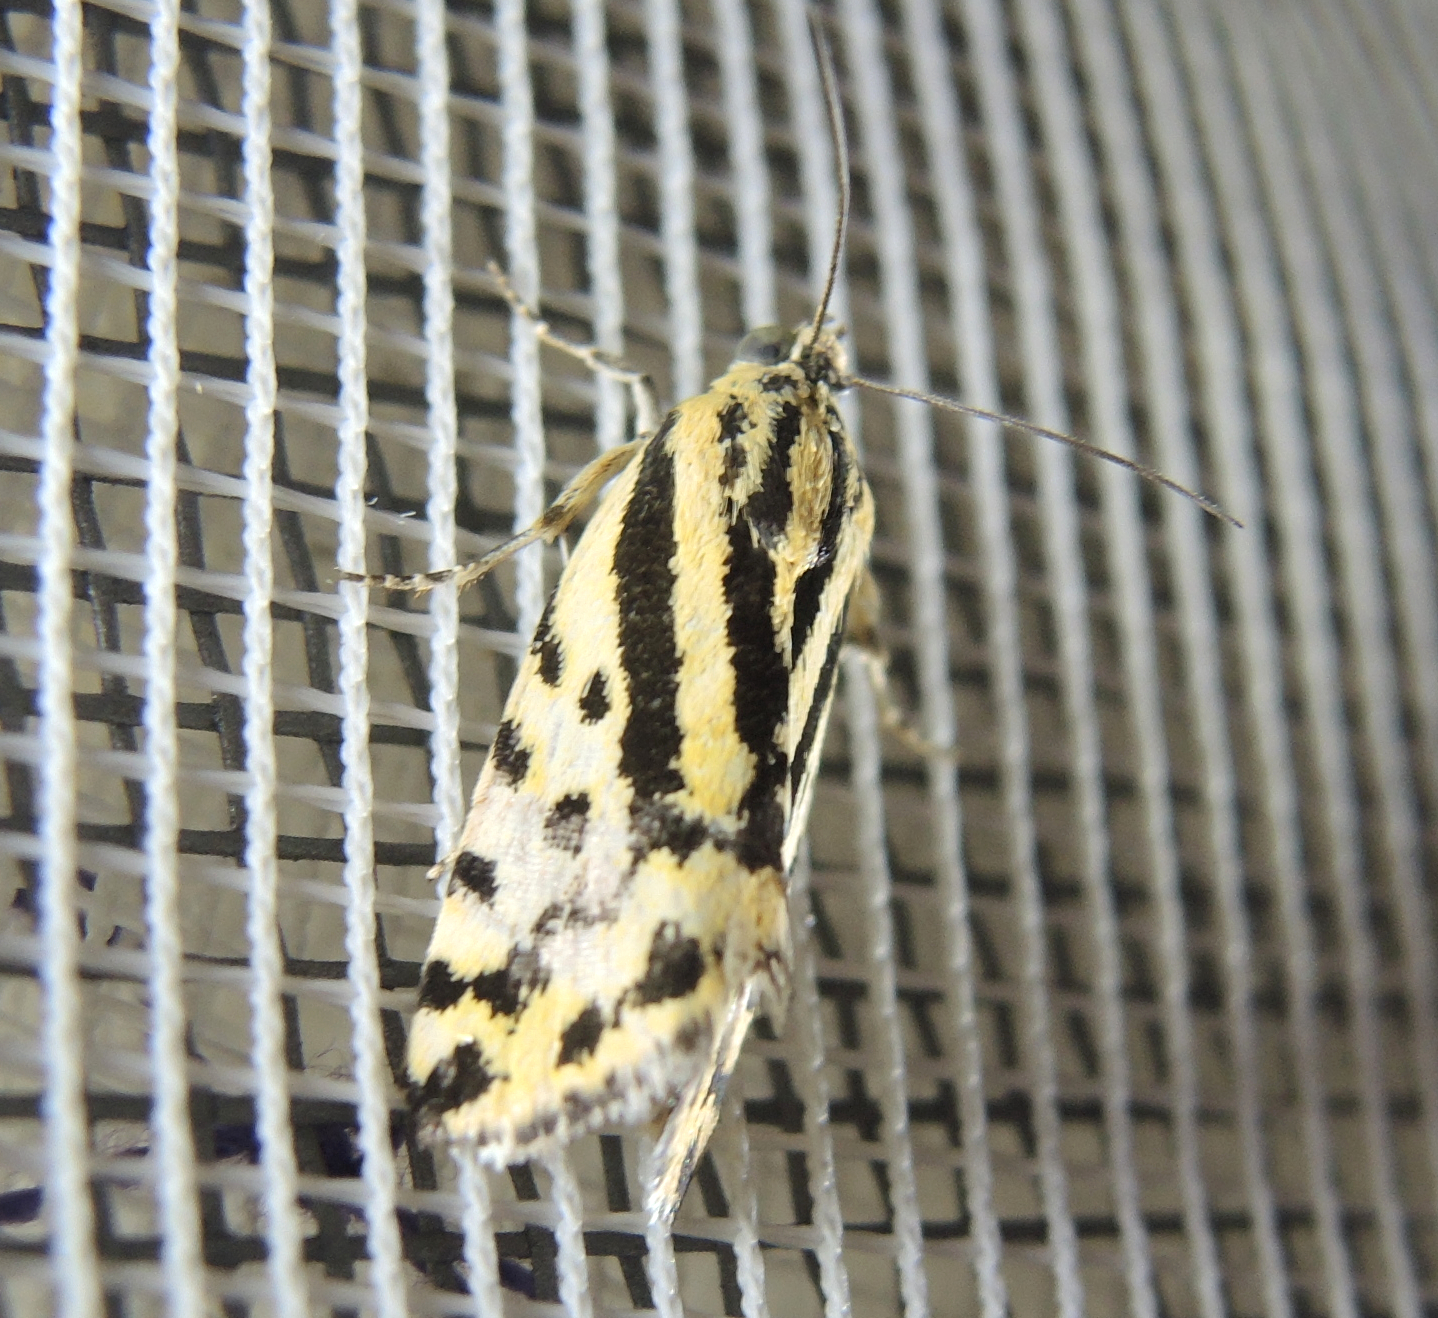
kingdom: Animalia
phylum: Arthropoda
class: Insecta
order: Lepidoptera
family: Noctuidae
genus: Acontia
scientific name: Acontia trabealis
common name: Spotted sulphur
